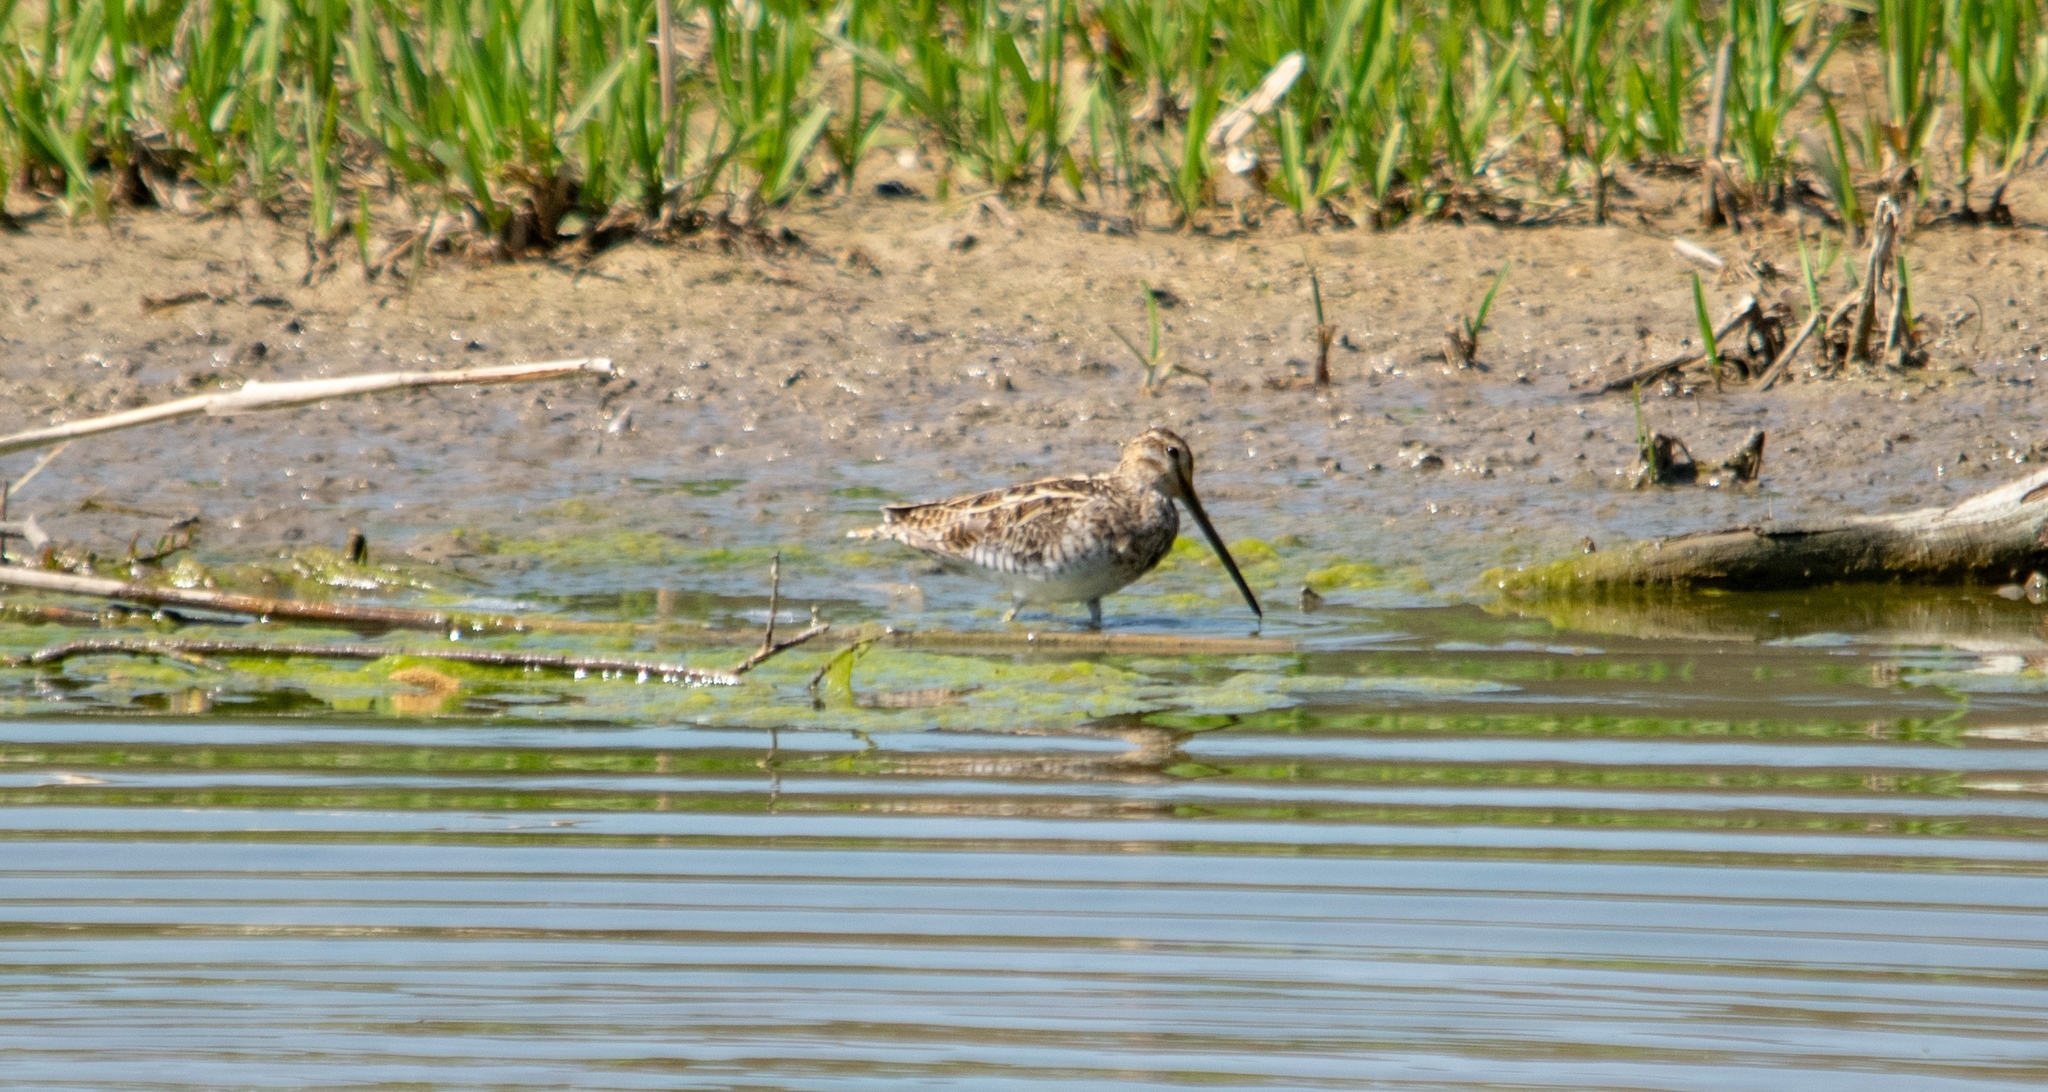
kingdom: Animalia
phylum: Chordata
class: Aves
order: Charadriiformes
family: Scolopacidae
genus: Gallinago
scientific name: Gallinago gallinago
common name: Common snipe
